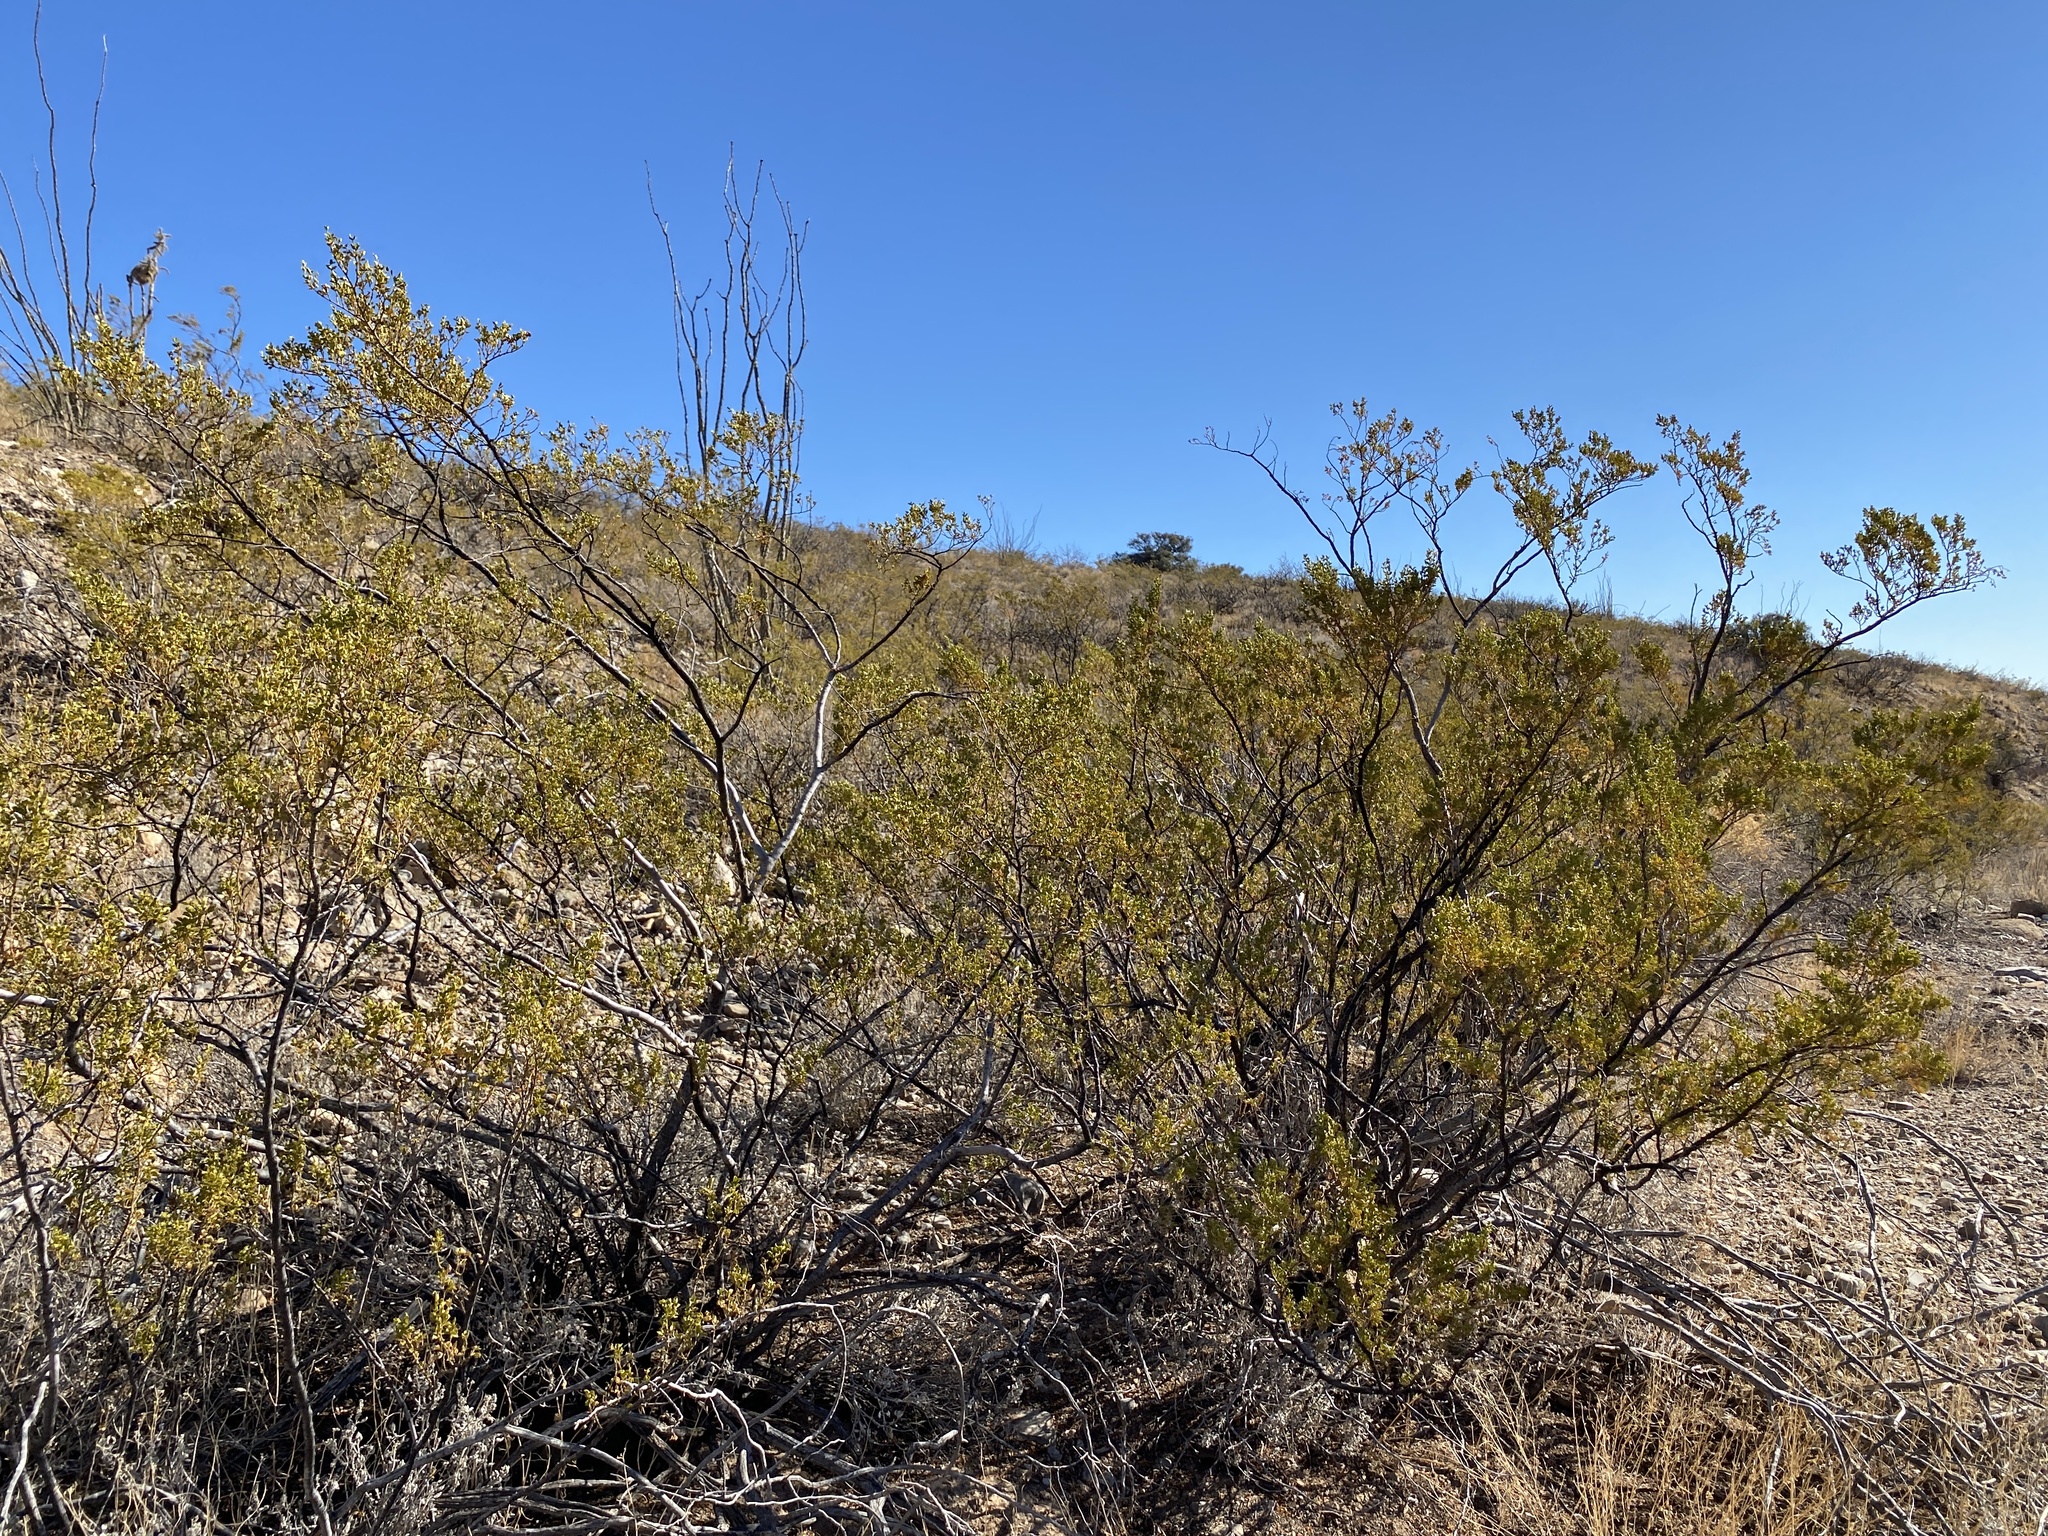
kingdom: Plantae
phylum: Tracheophyta
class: Magnoliopsida
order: Zygophyllales
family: Zygophyllaceae
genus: Larrea
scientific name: Larrea tridentata
